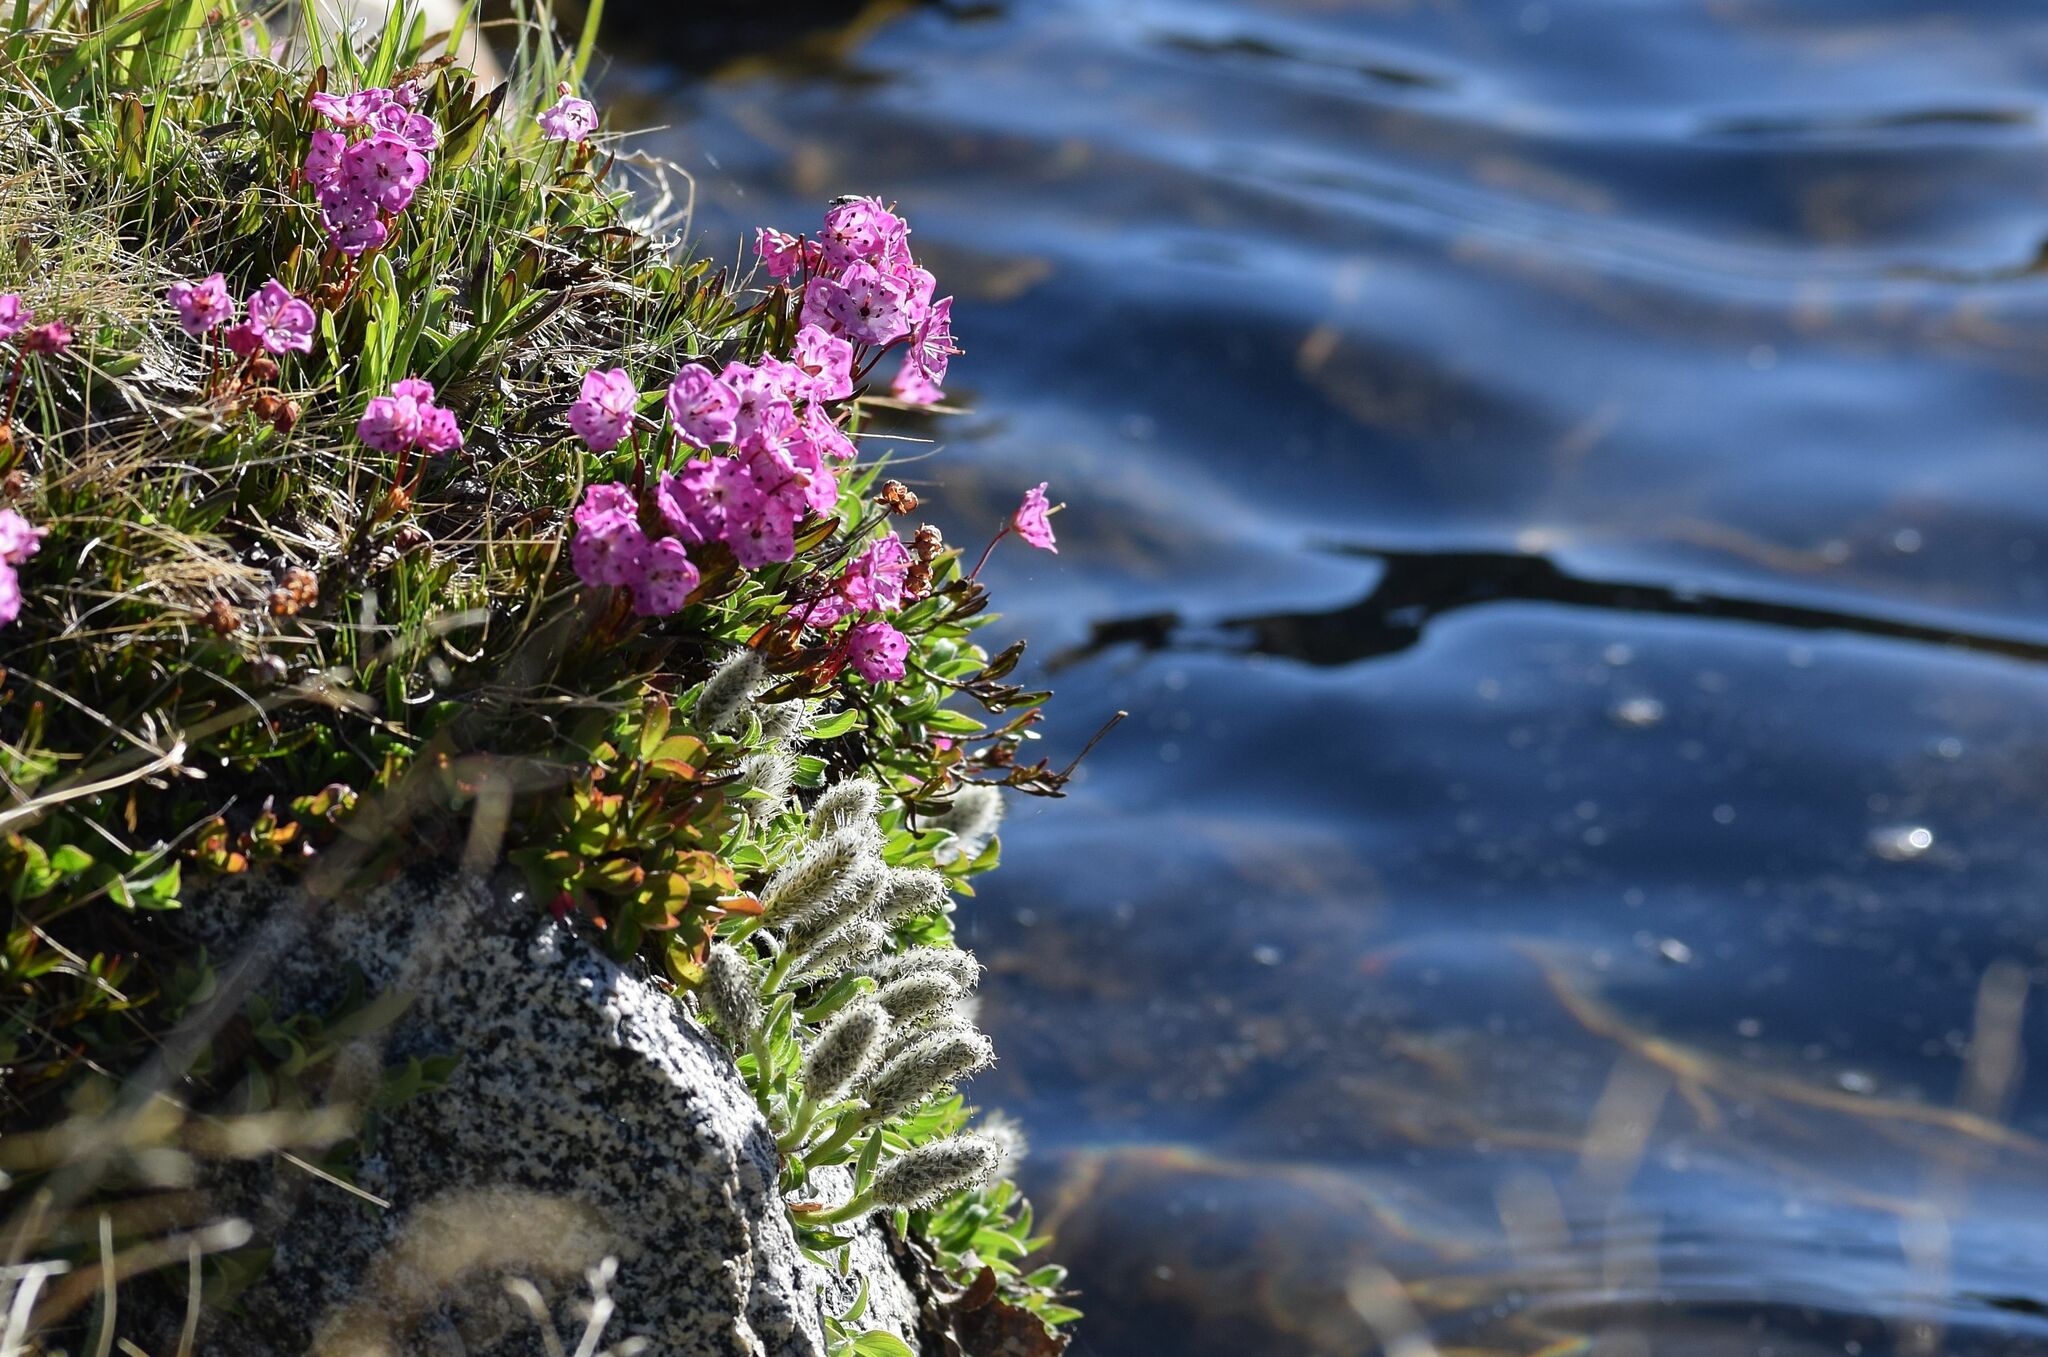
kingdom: Plantae
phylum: Tracheophyta
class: Magnoliopsida
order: Ericales
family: Ericaceae
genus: Kalmia
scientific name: Kalmia microphylla
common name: Alpine bog laurel
